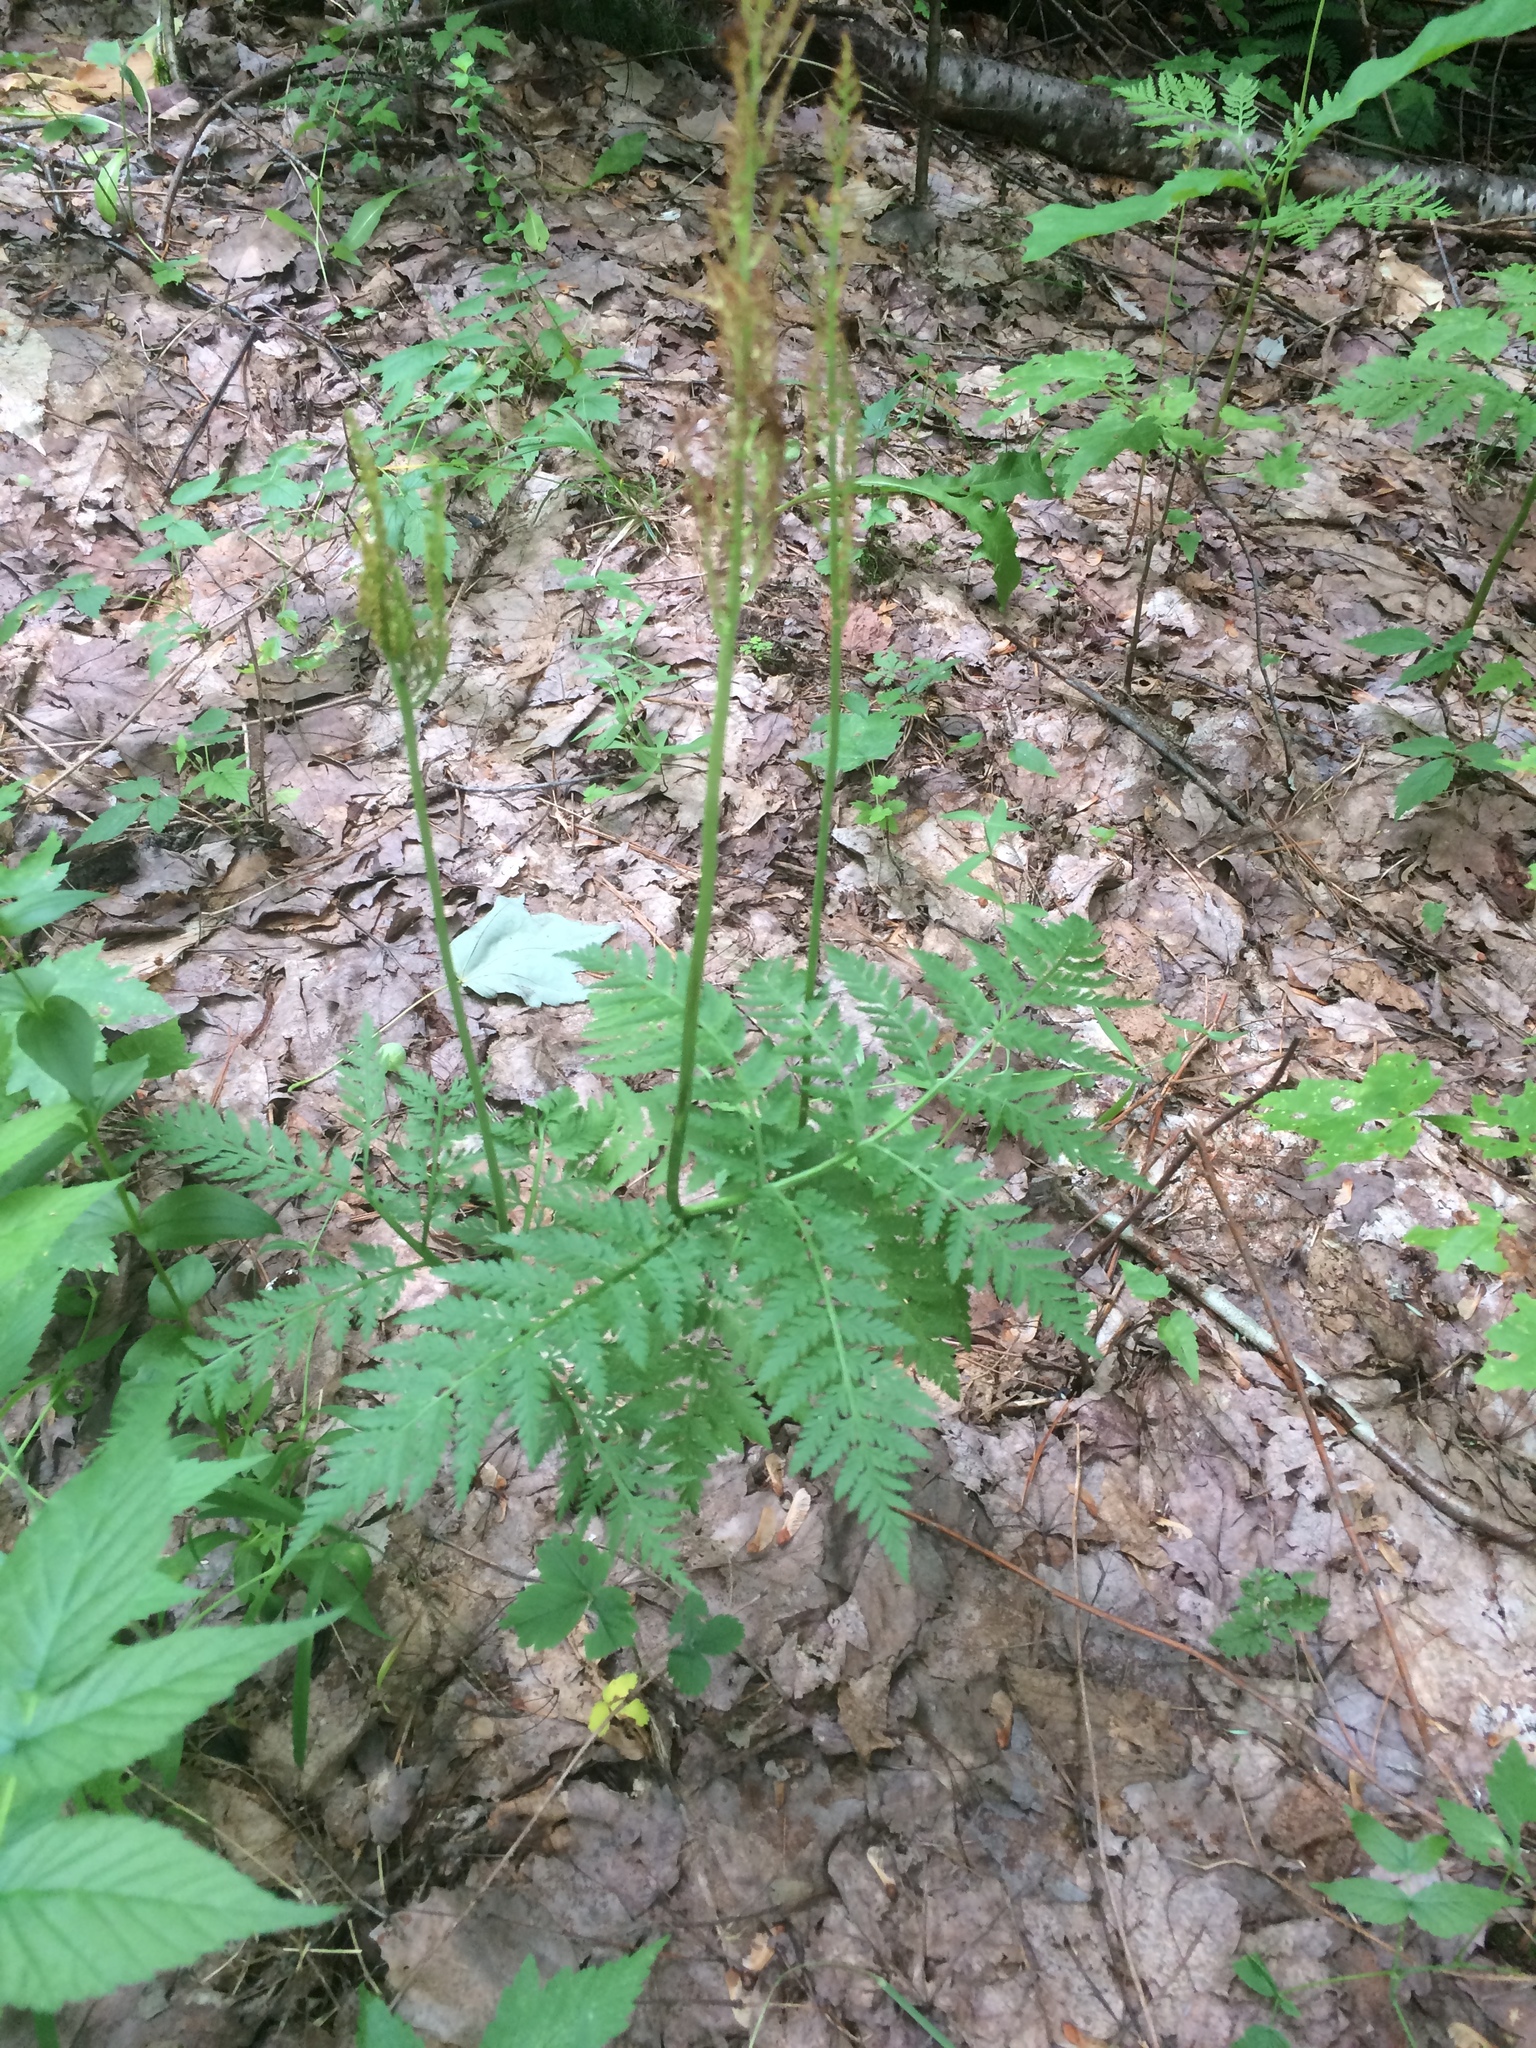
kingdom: Plantae
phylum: Tracheophyta
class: Polypodiopsida
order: Ophioglossales
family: Ophioglossaceae
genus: Botrypus
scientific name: Botrypus virginianus
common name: Common grapefern
